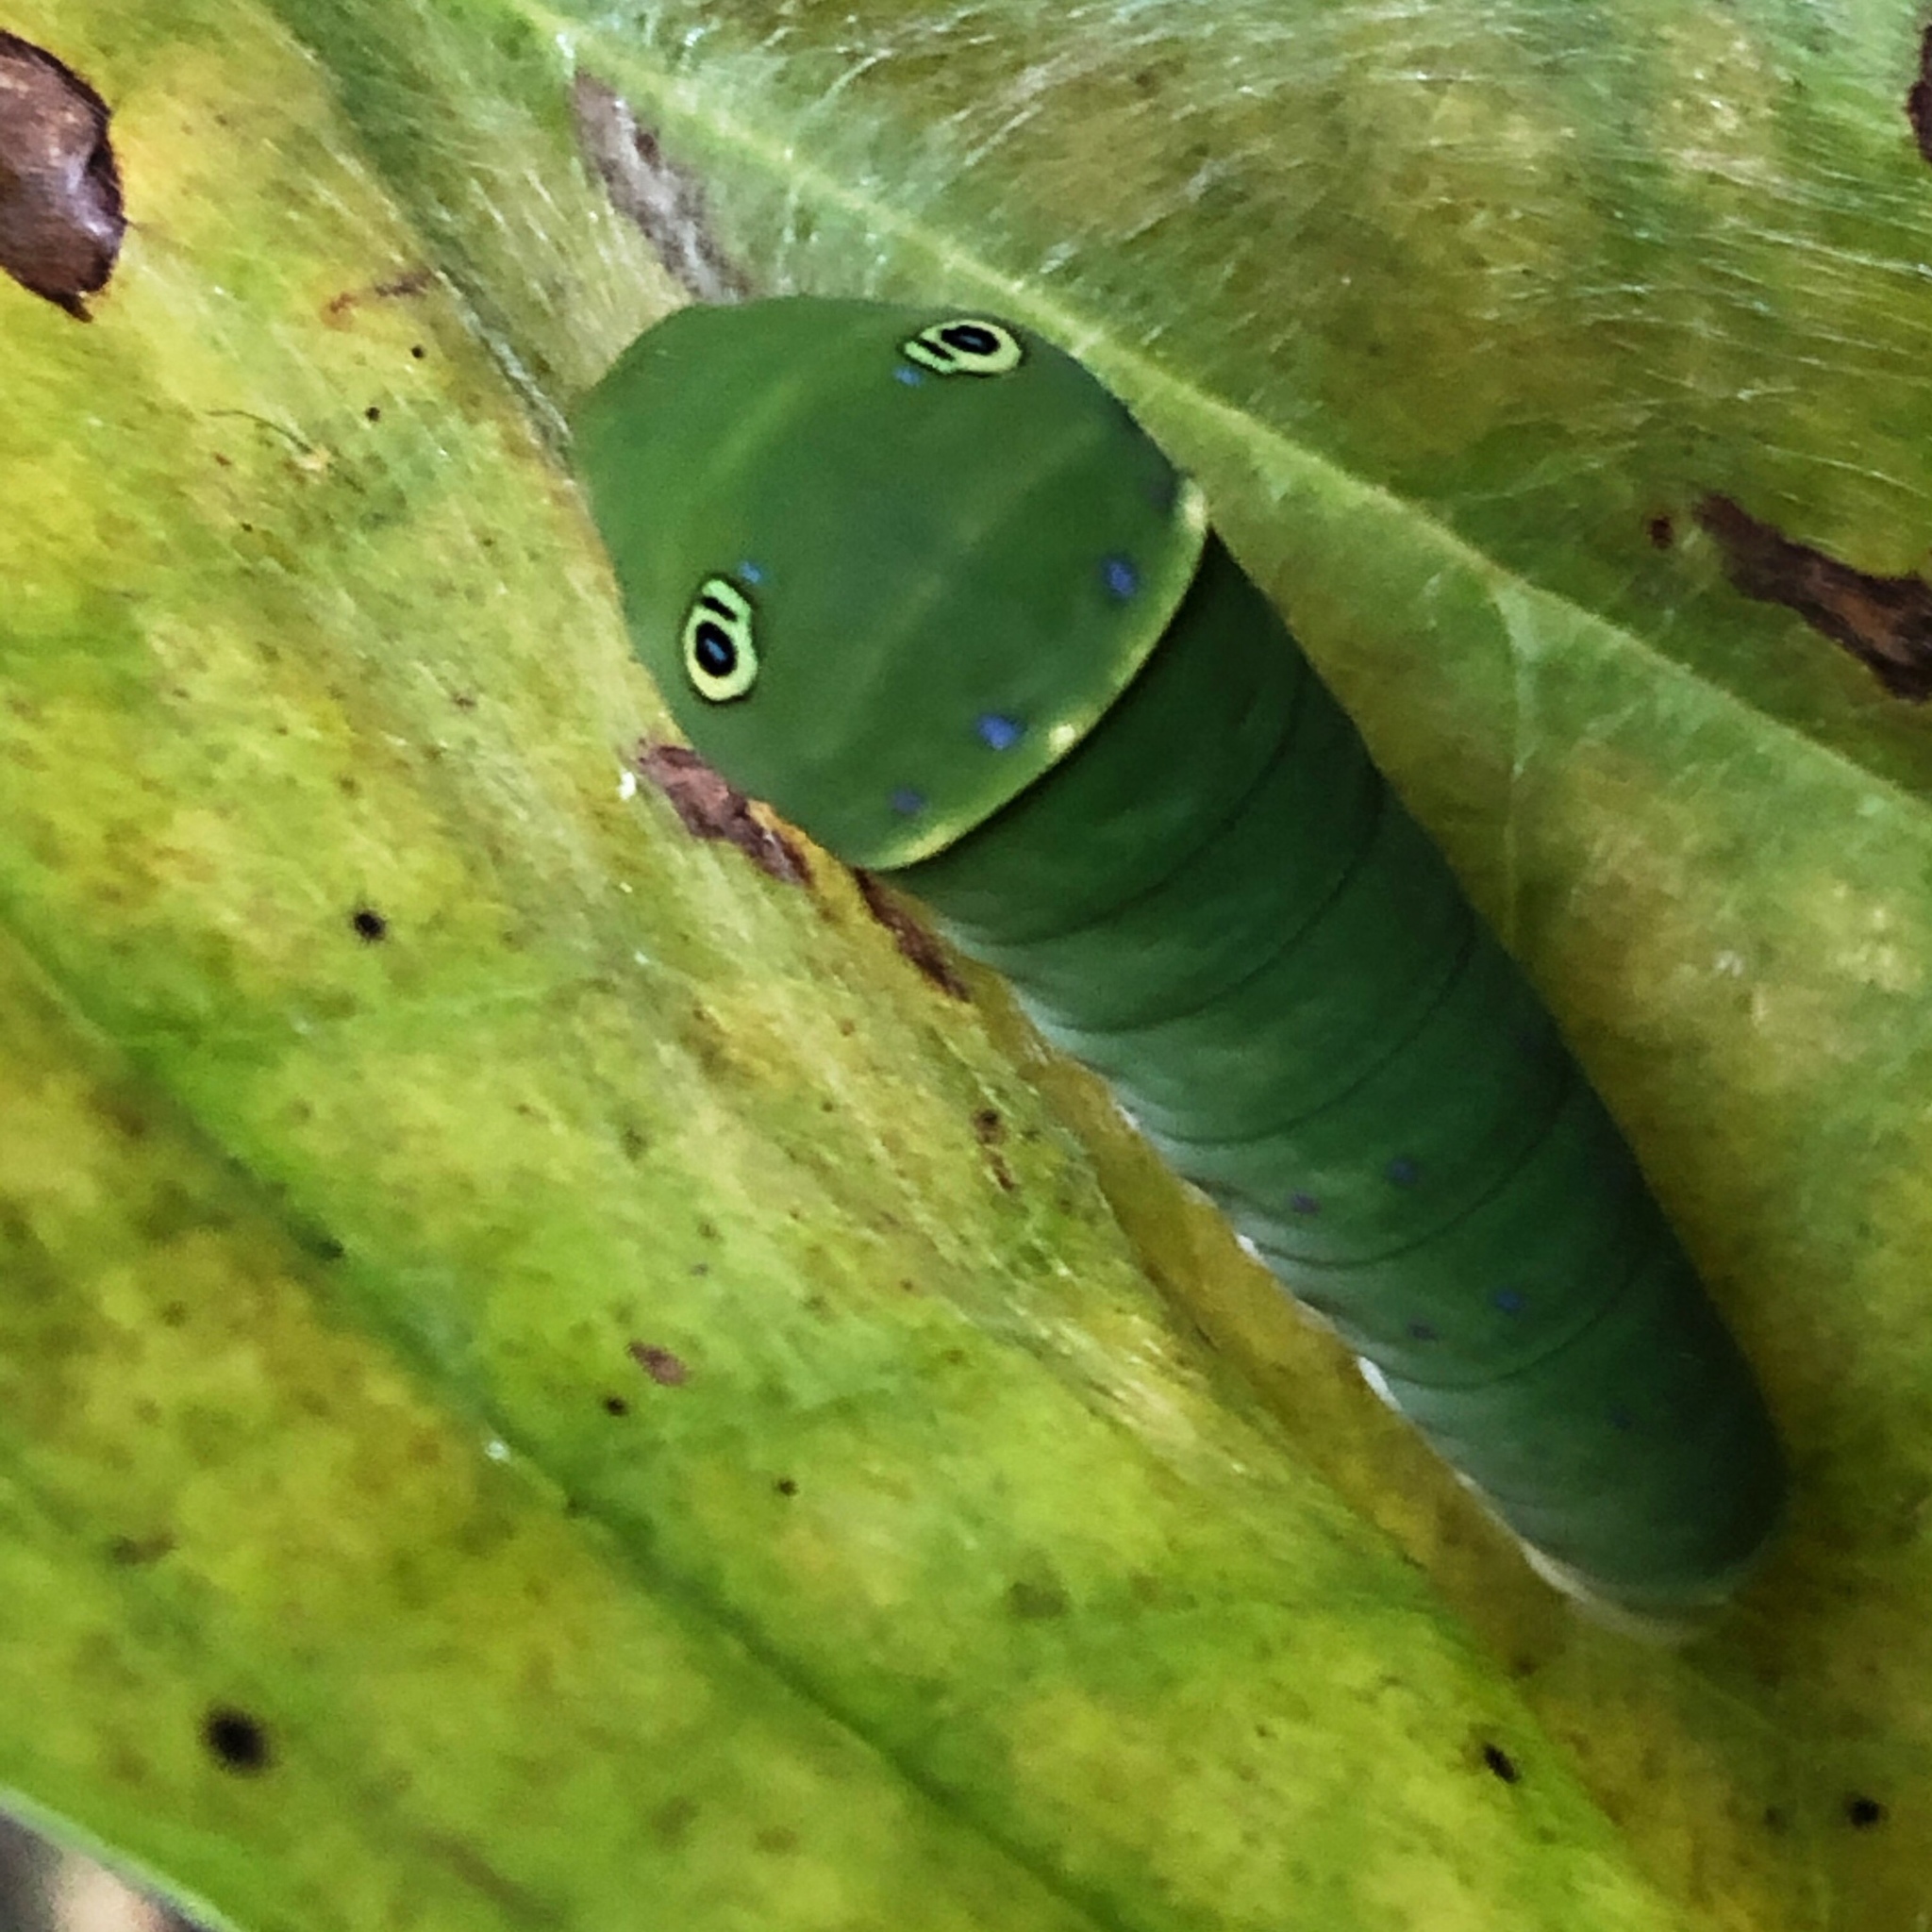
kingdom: Animalia
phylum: Arthropoda
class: Insecta
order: Lepidoptera
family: Papilionidae
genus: Papilio
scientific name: Papilio glaucus
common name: Tiger swallowtail
